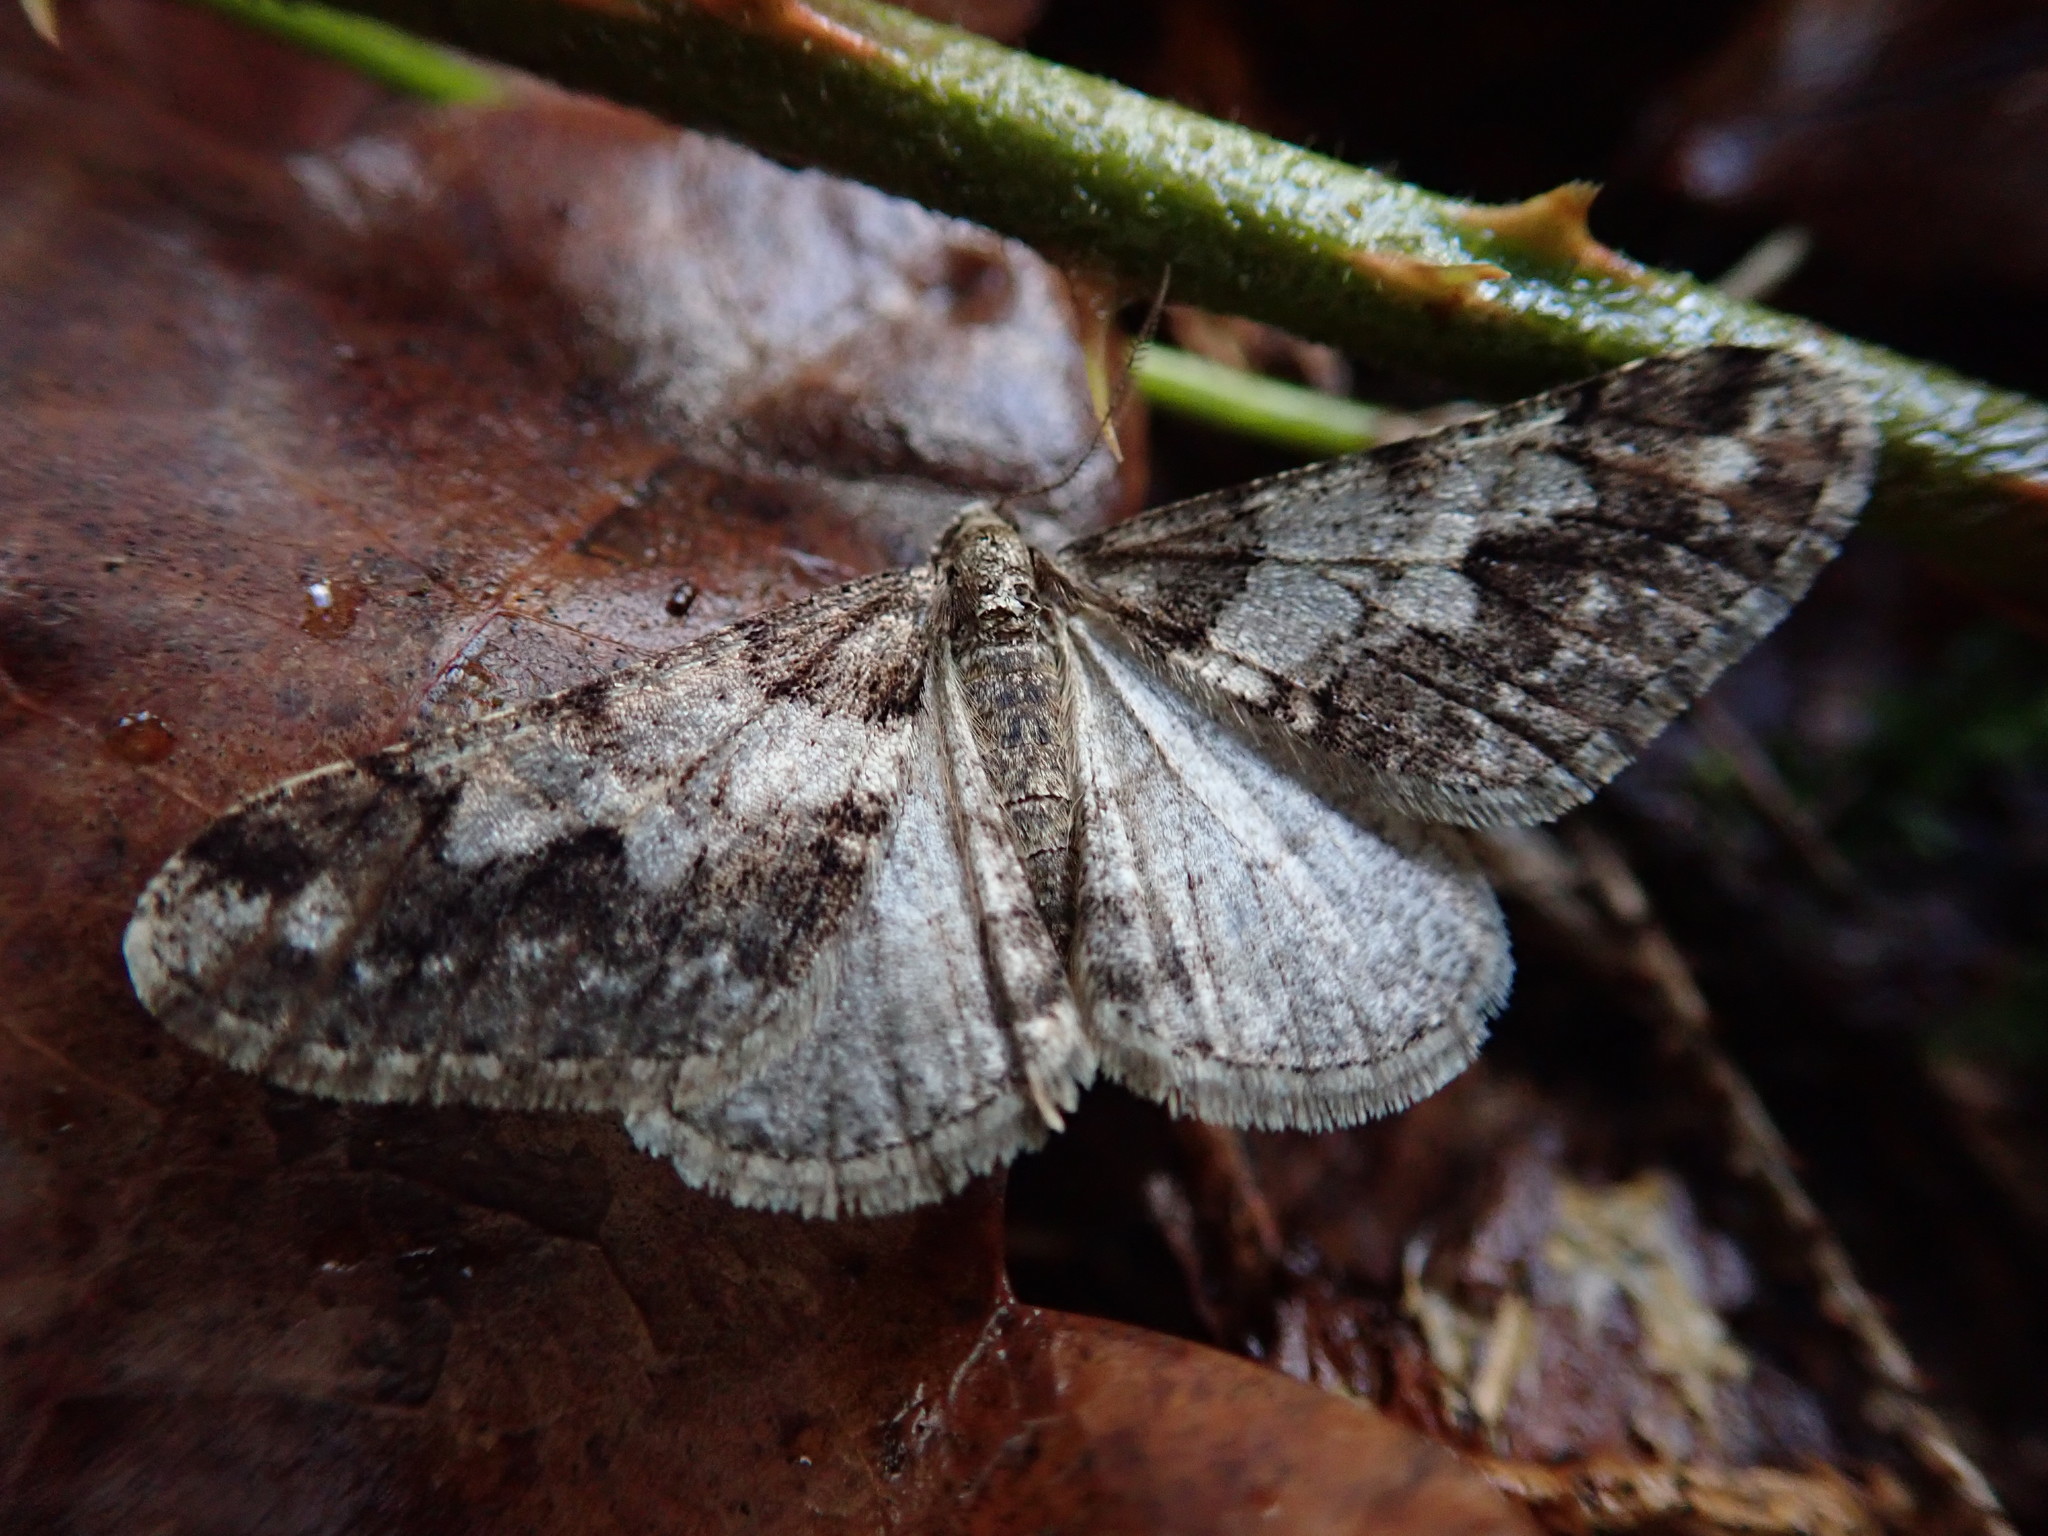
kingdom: Animalia
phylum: Arthropoda
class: Insecta
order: Lepidoptera
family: Geometridae
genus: Agriopis
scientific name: Agriopis leucophaearia
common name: Spring usher
